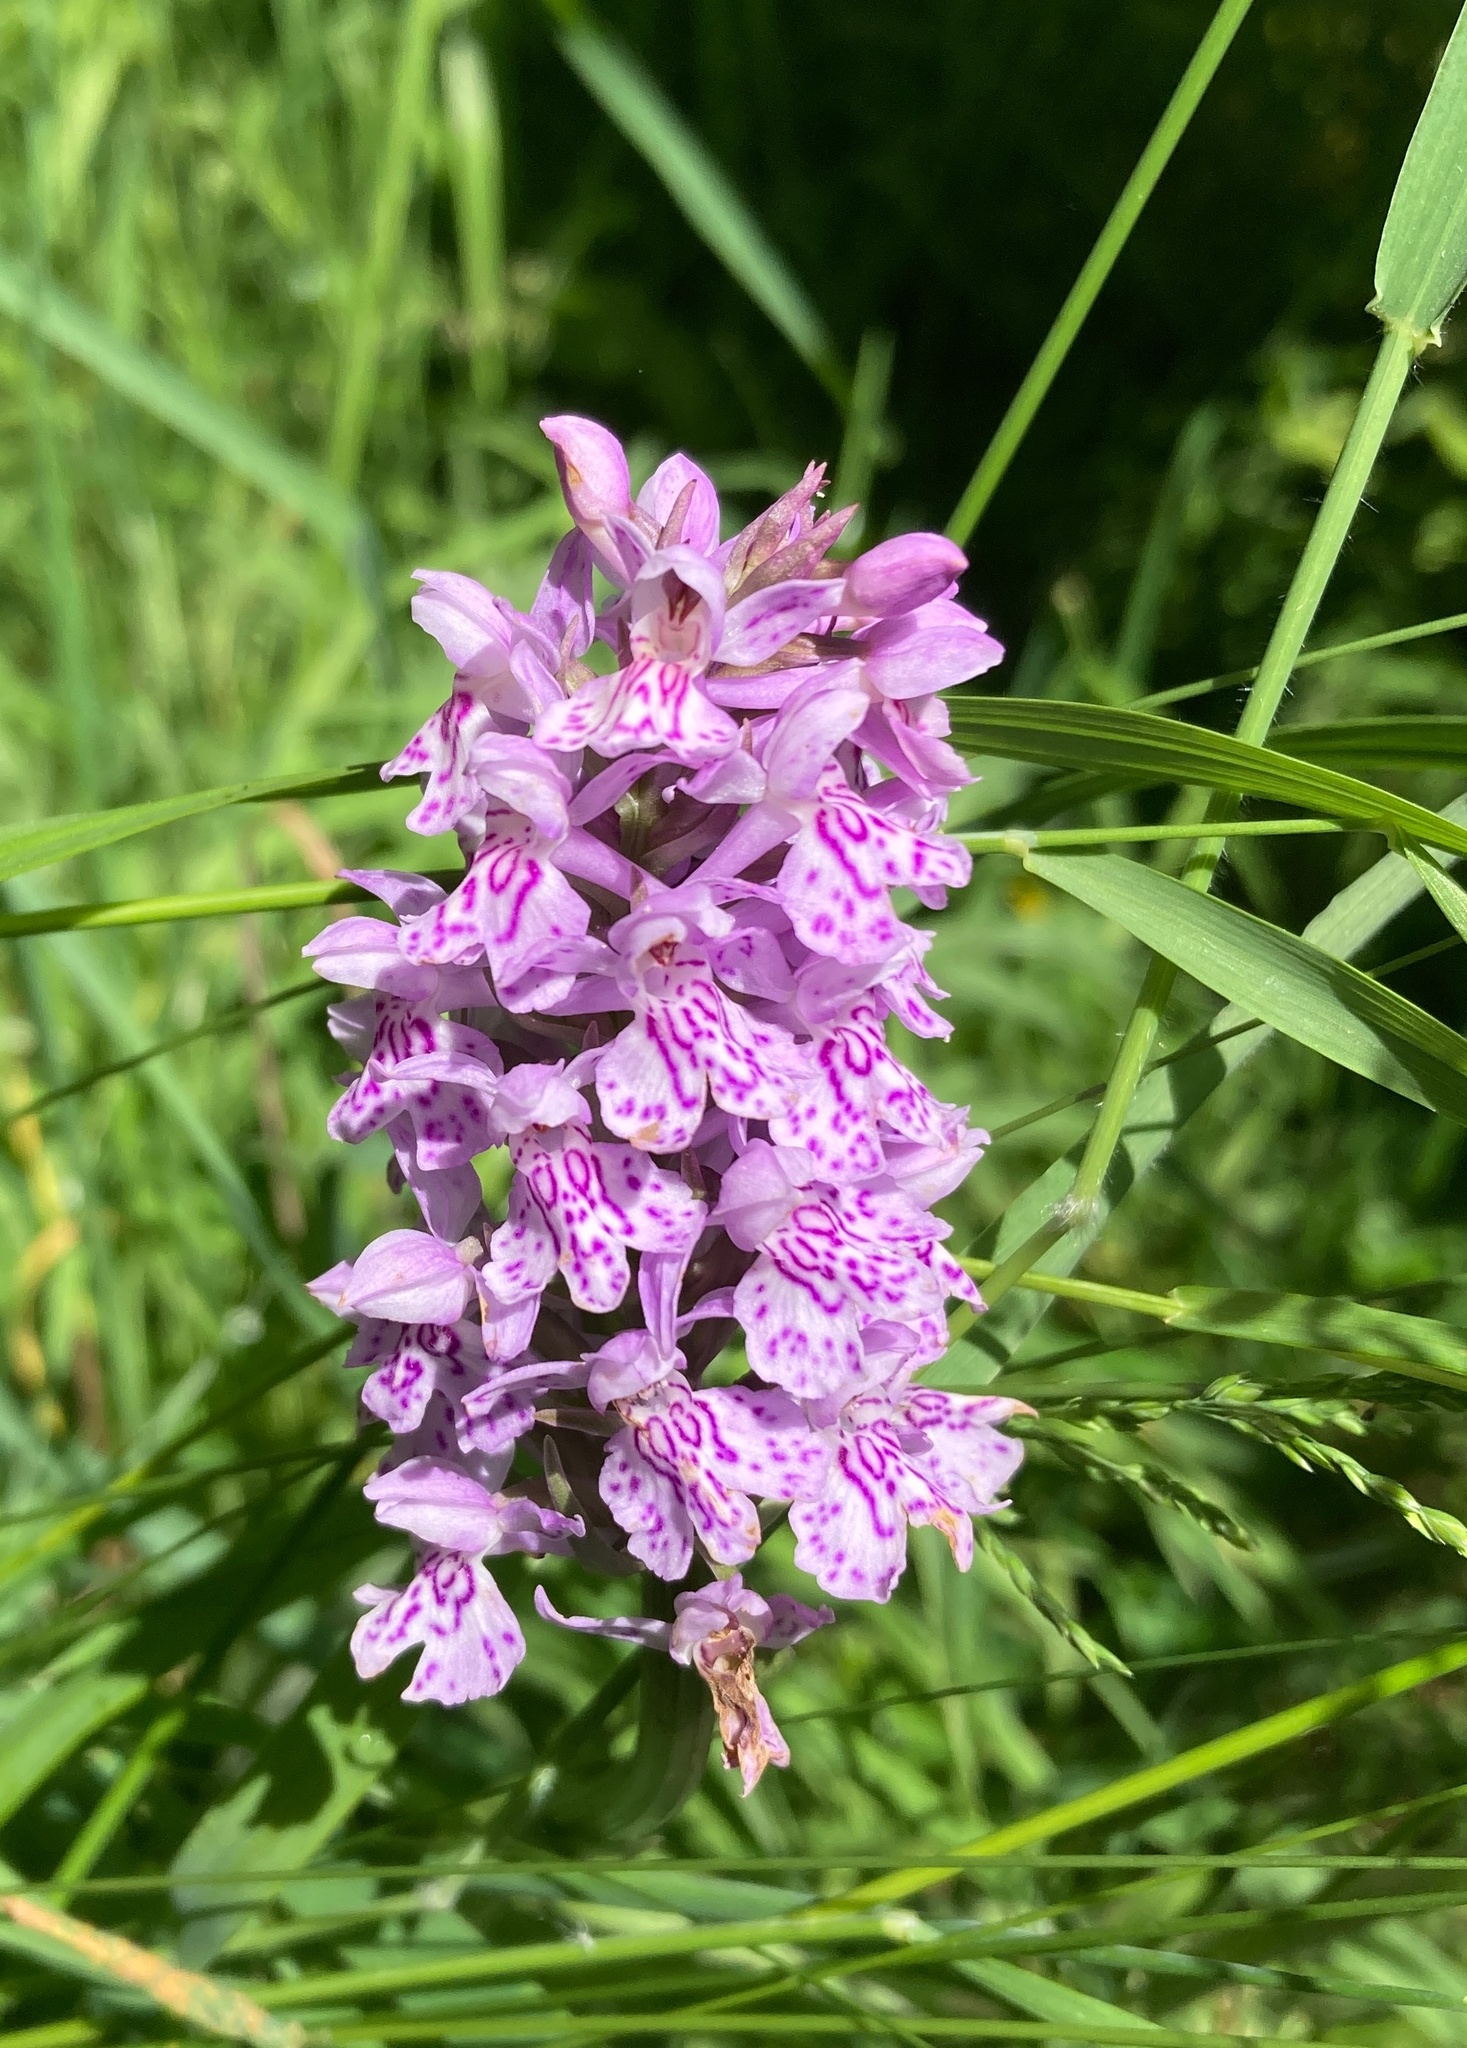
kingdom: Plantae
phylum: Tracheophyta
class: Liliopsida
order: Asparagales
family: Orchidaceae
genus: Dactylorhiza
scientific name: Dactylorhiza maculata
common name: Heath spotted-orchid
